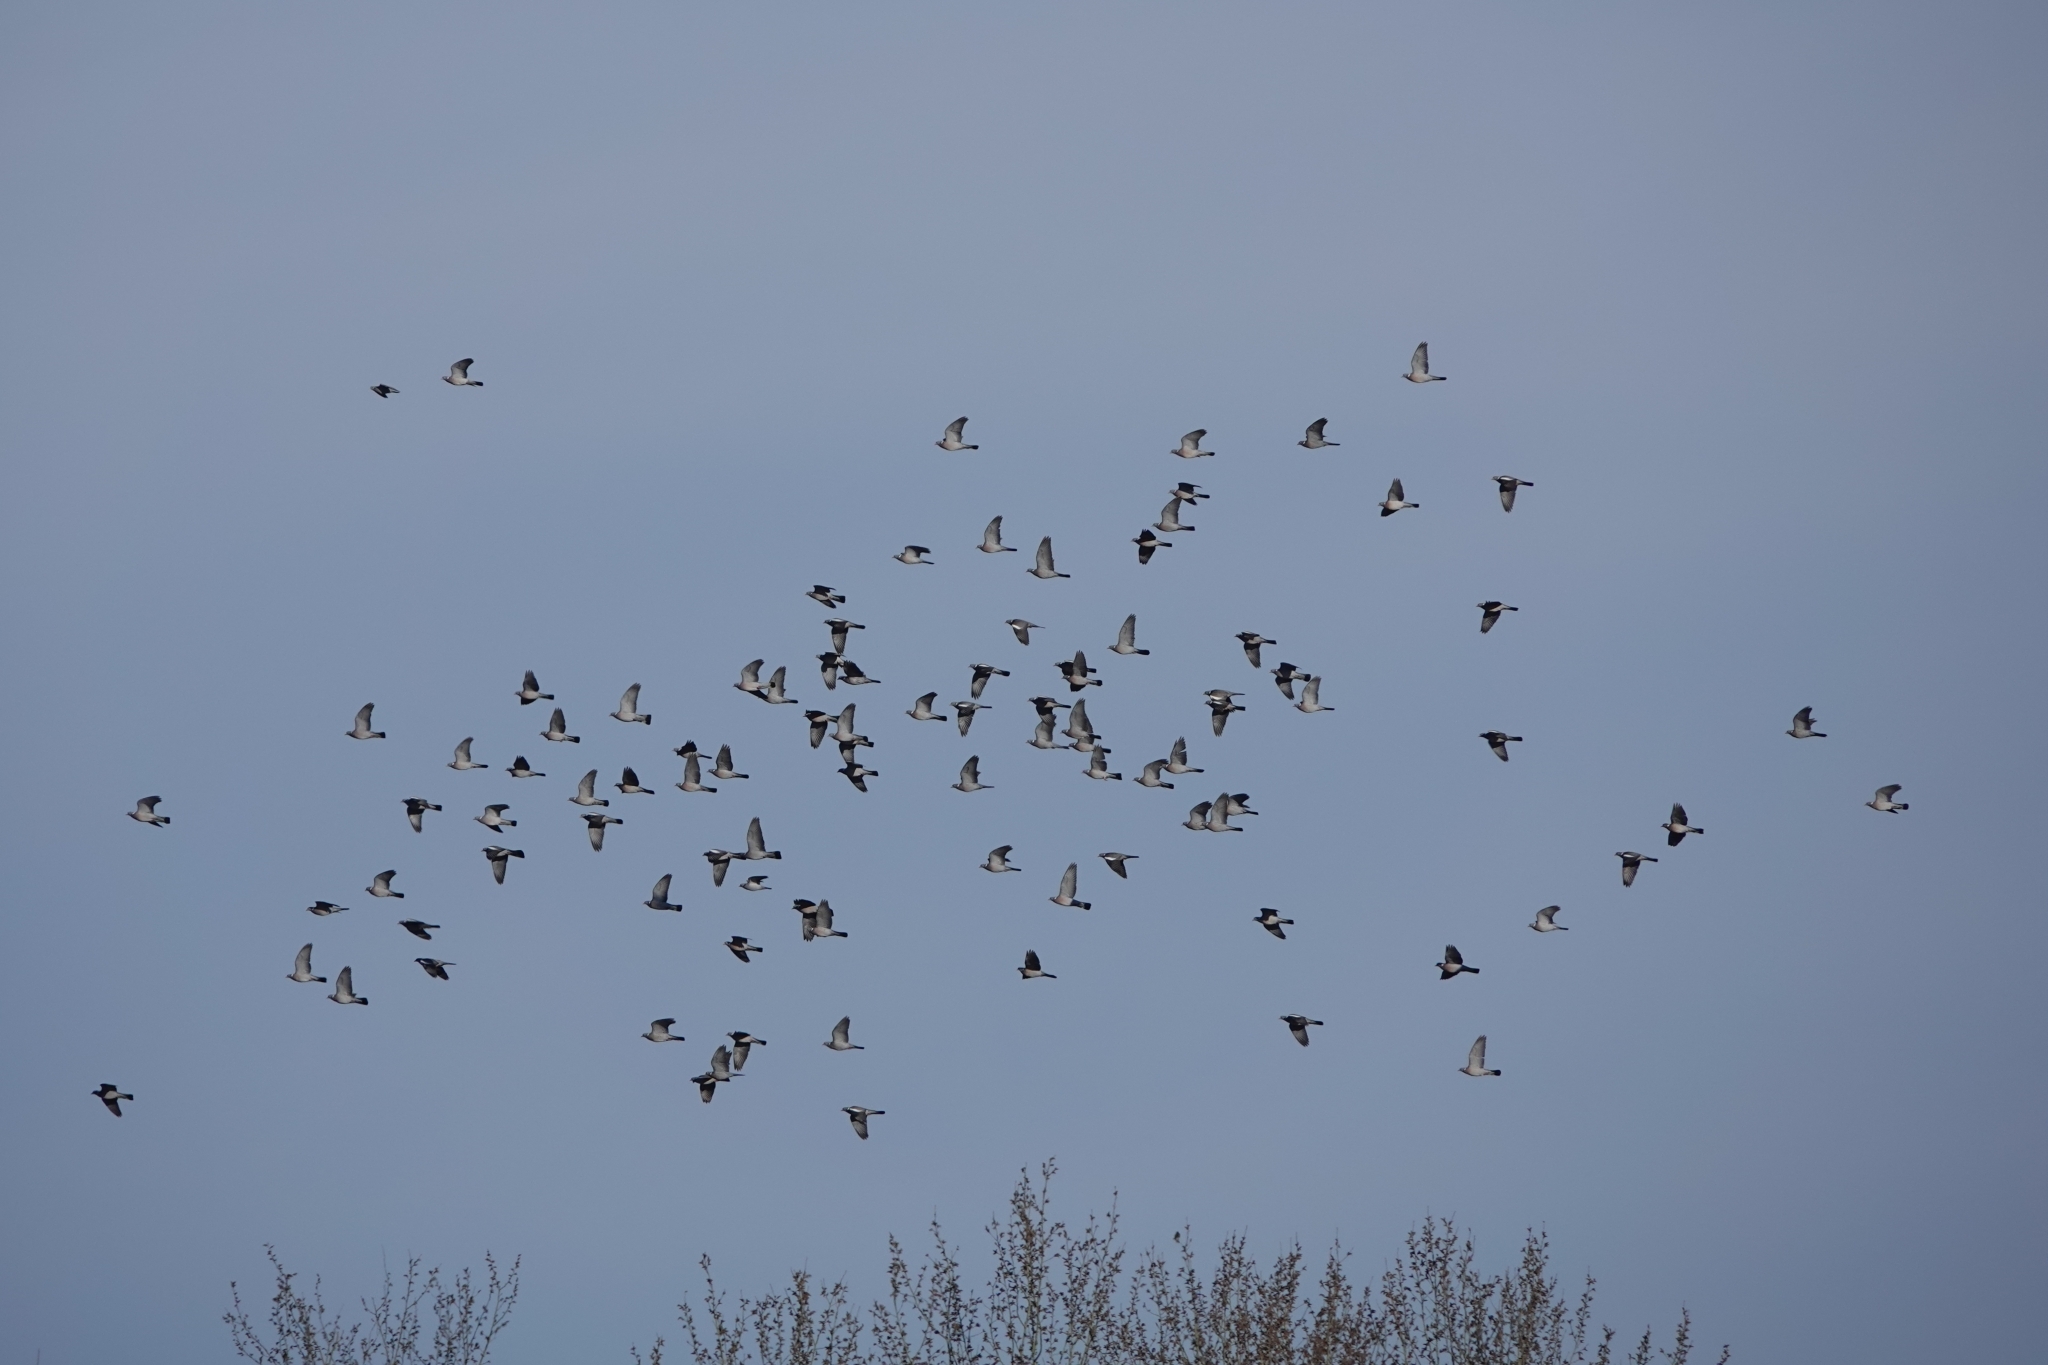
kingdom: Animalia
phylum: Chordata
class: Aves
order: Columbiformes
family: Columbidae
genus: Columba
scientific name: Columba palumbus
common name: Common wood pigeon
